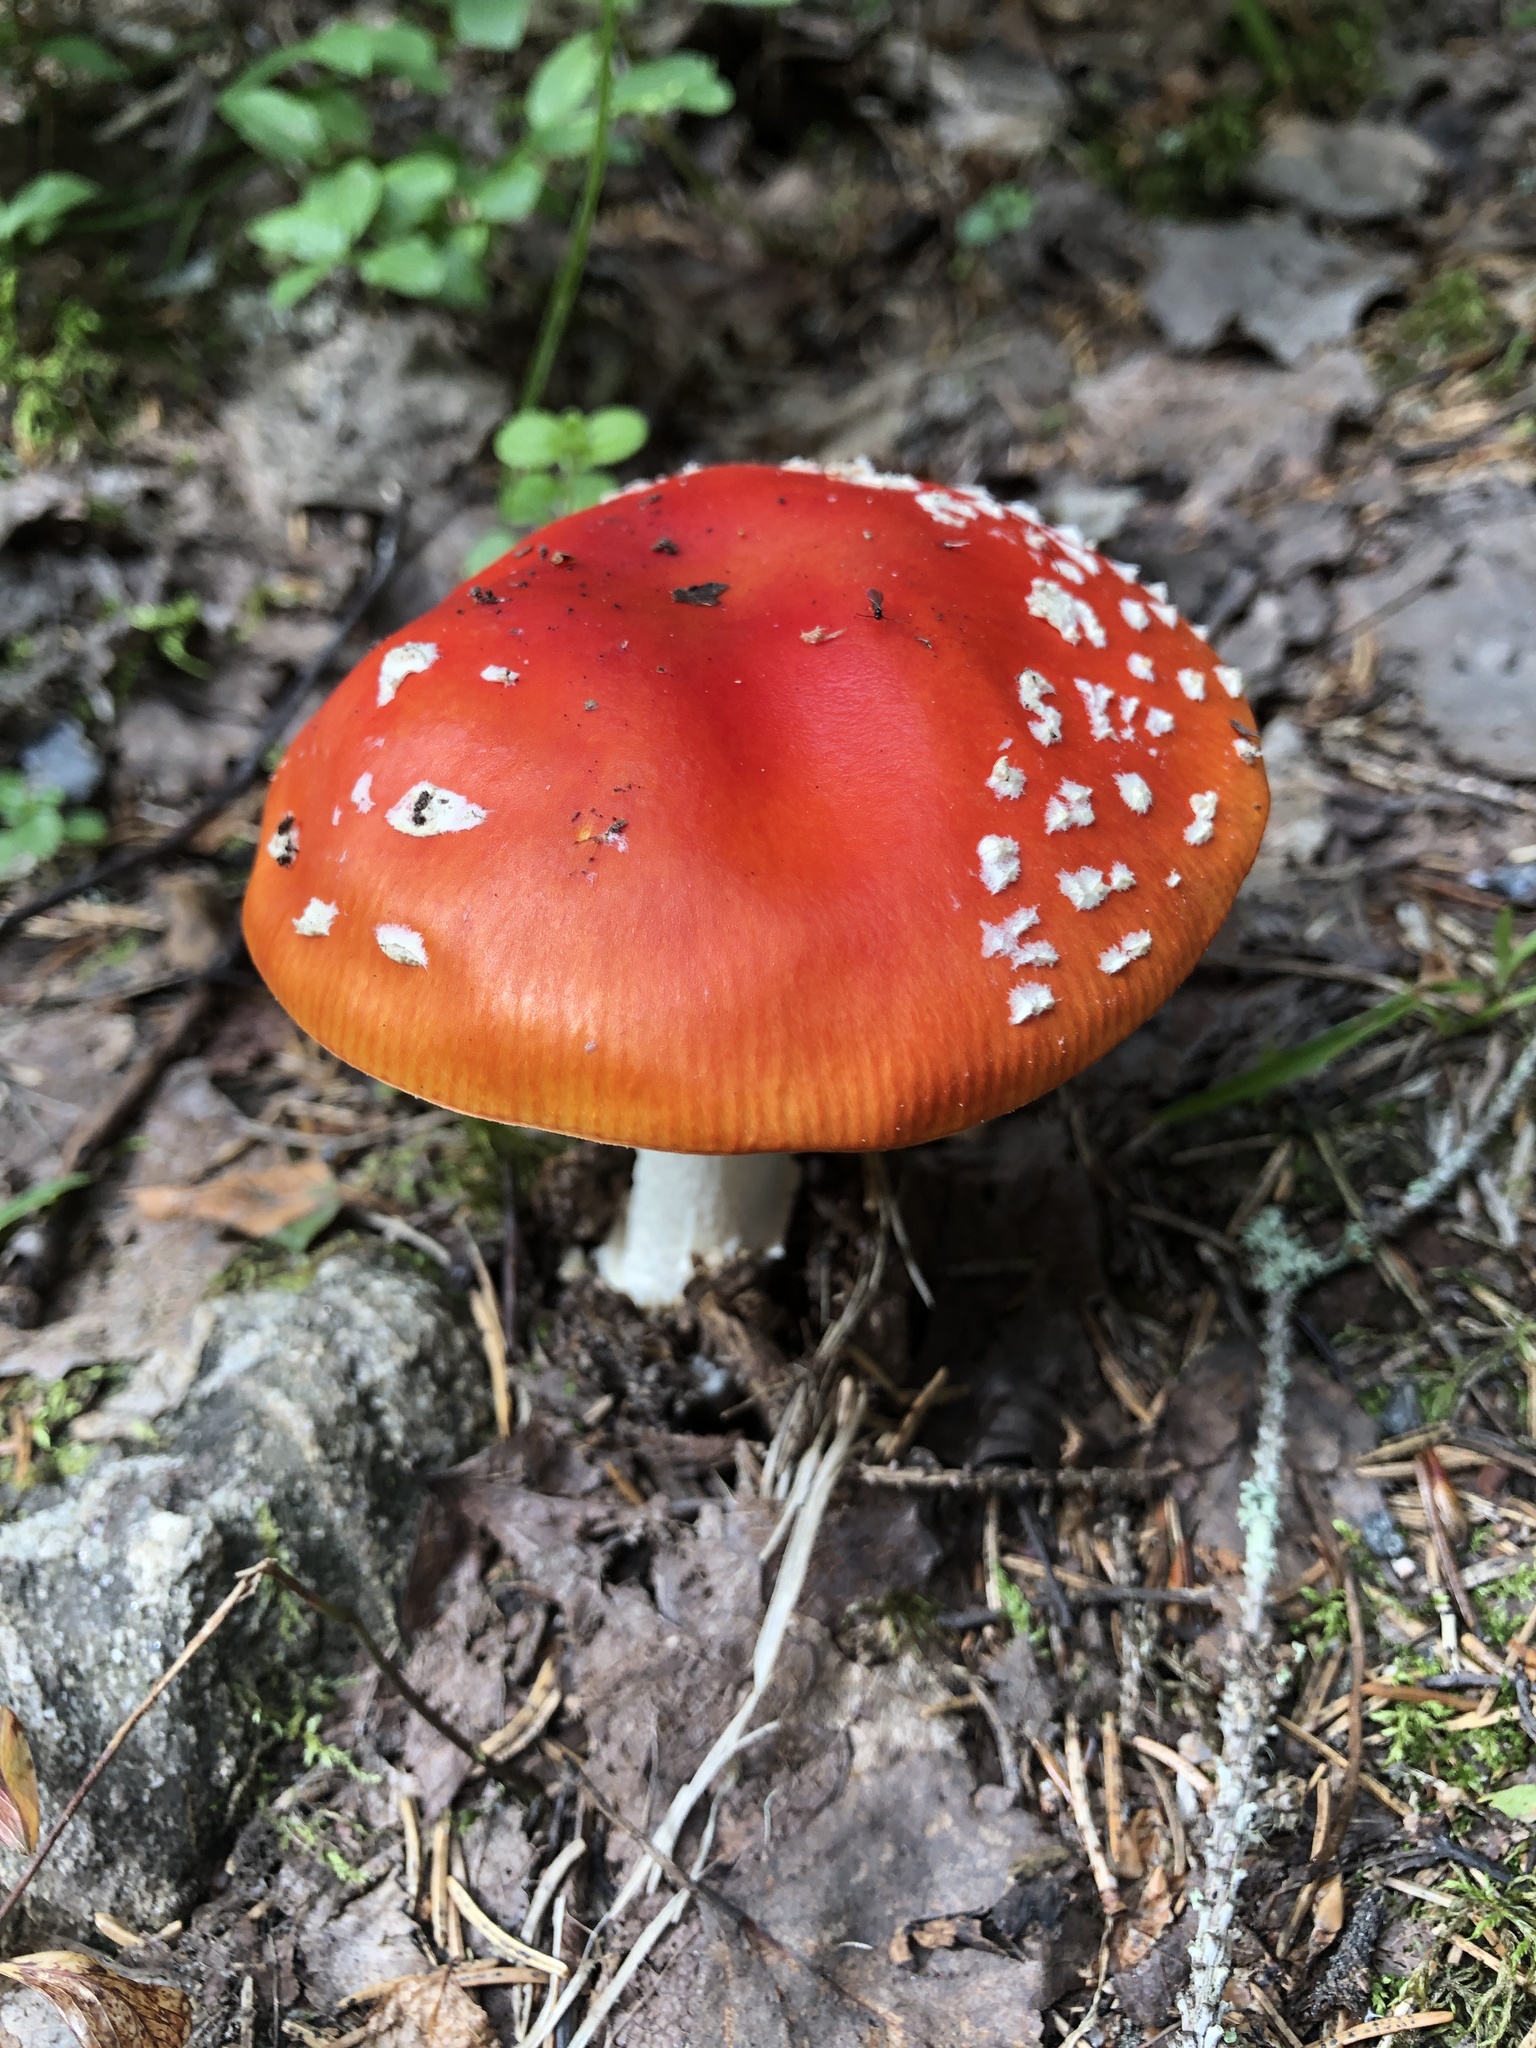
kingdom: Fungi
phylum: Basidiomycota
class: Agaricomycetes
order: Agaricales
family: Amanitaceae
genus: Amanita
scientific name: Amanita muscaria
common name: Fly agaric
